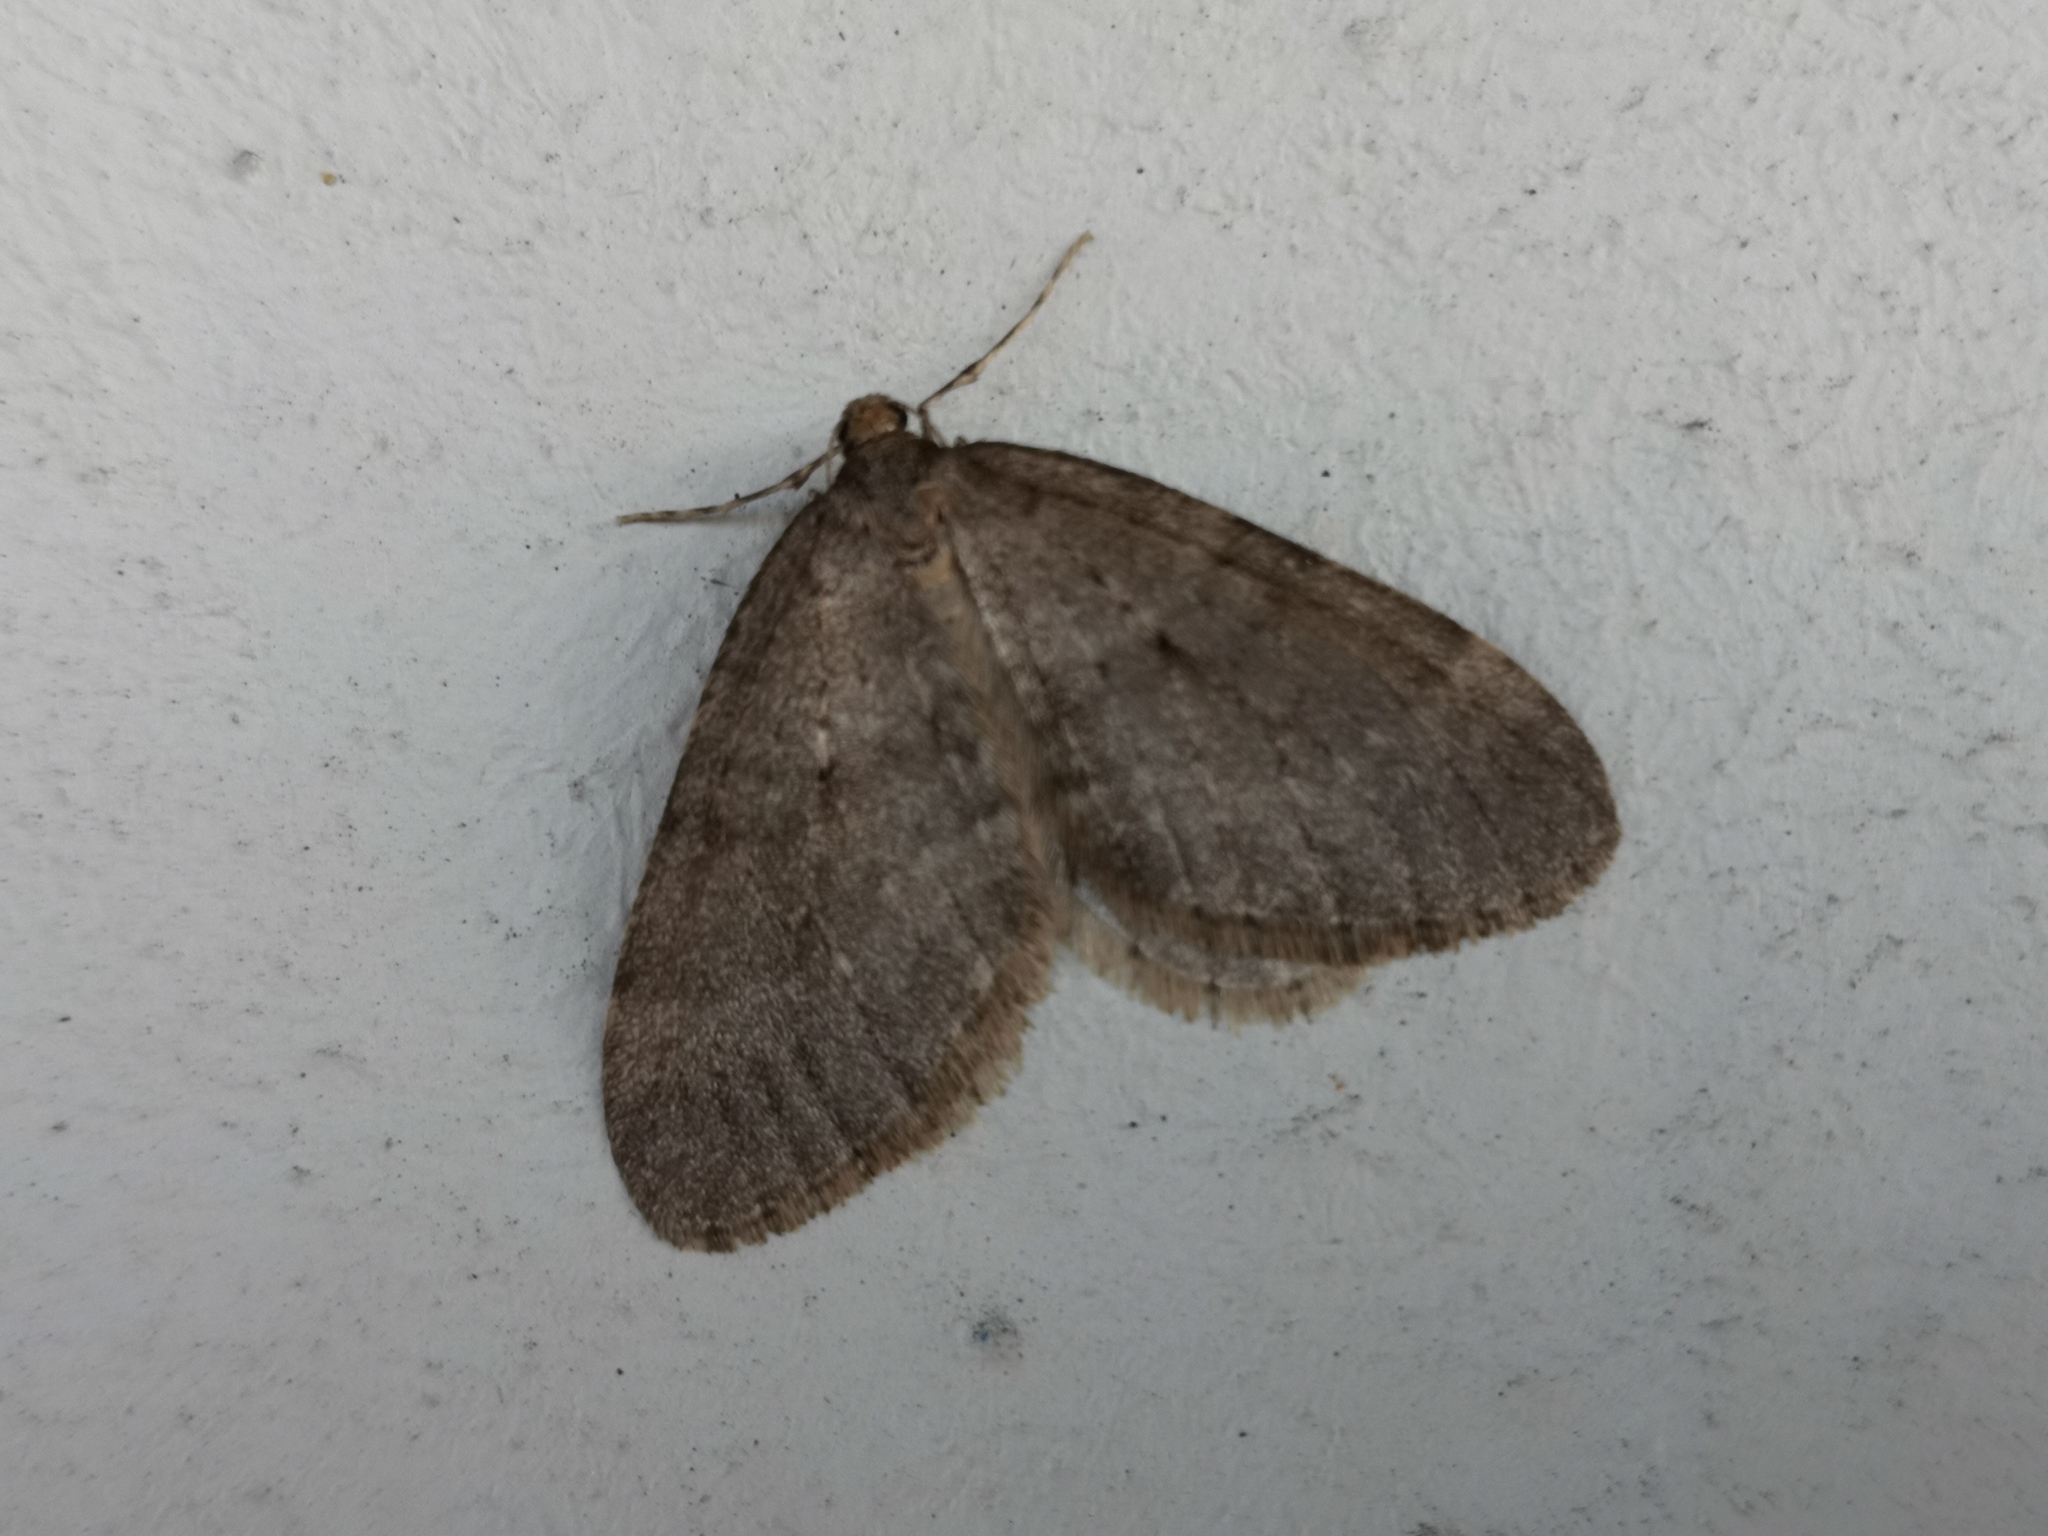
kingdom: Animalia
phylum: Arthropoda
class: Insecta
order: Lepidoptera
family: Geometridae
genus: Operophtera
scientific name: Operophtera brumata
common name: Winter moth
